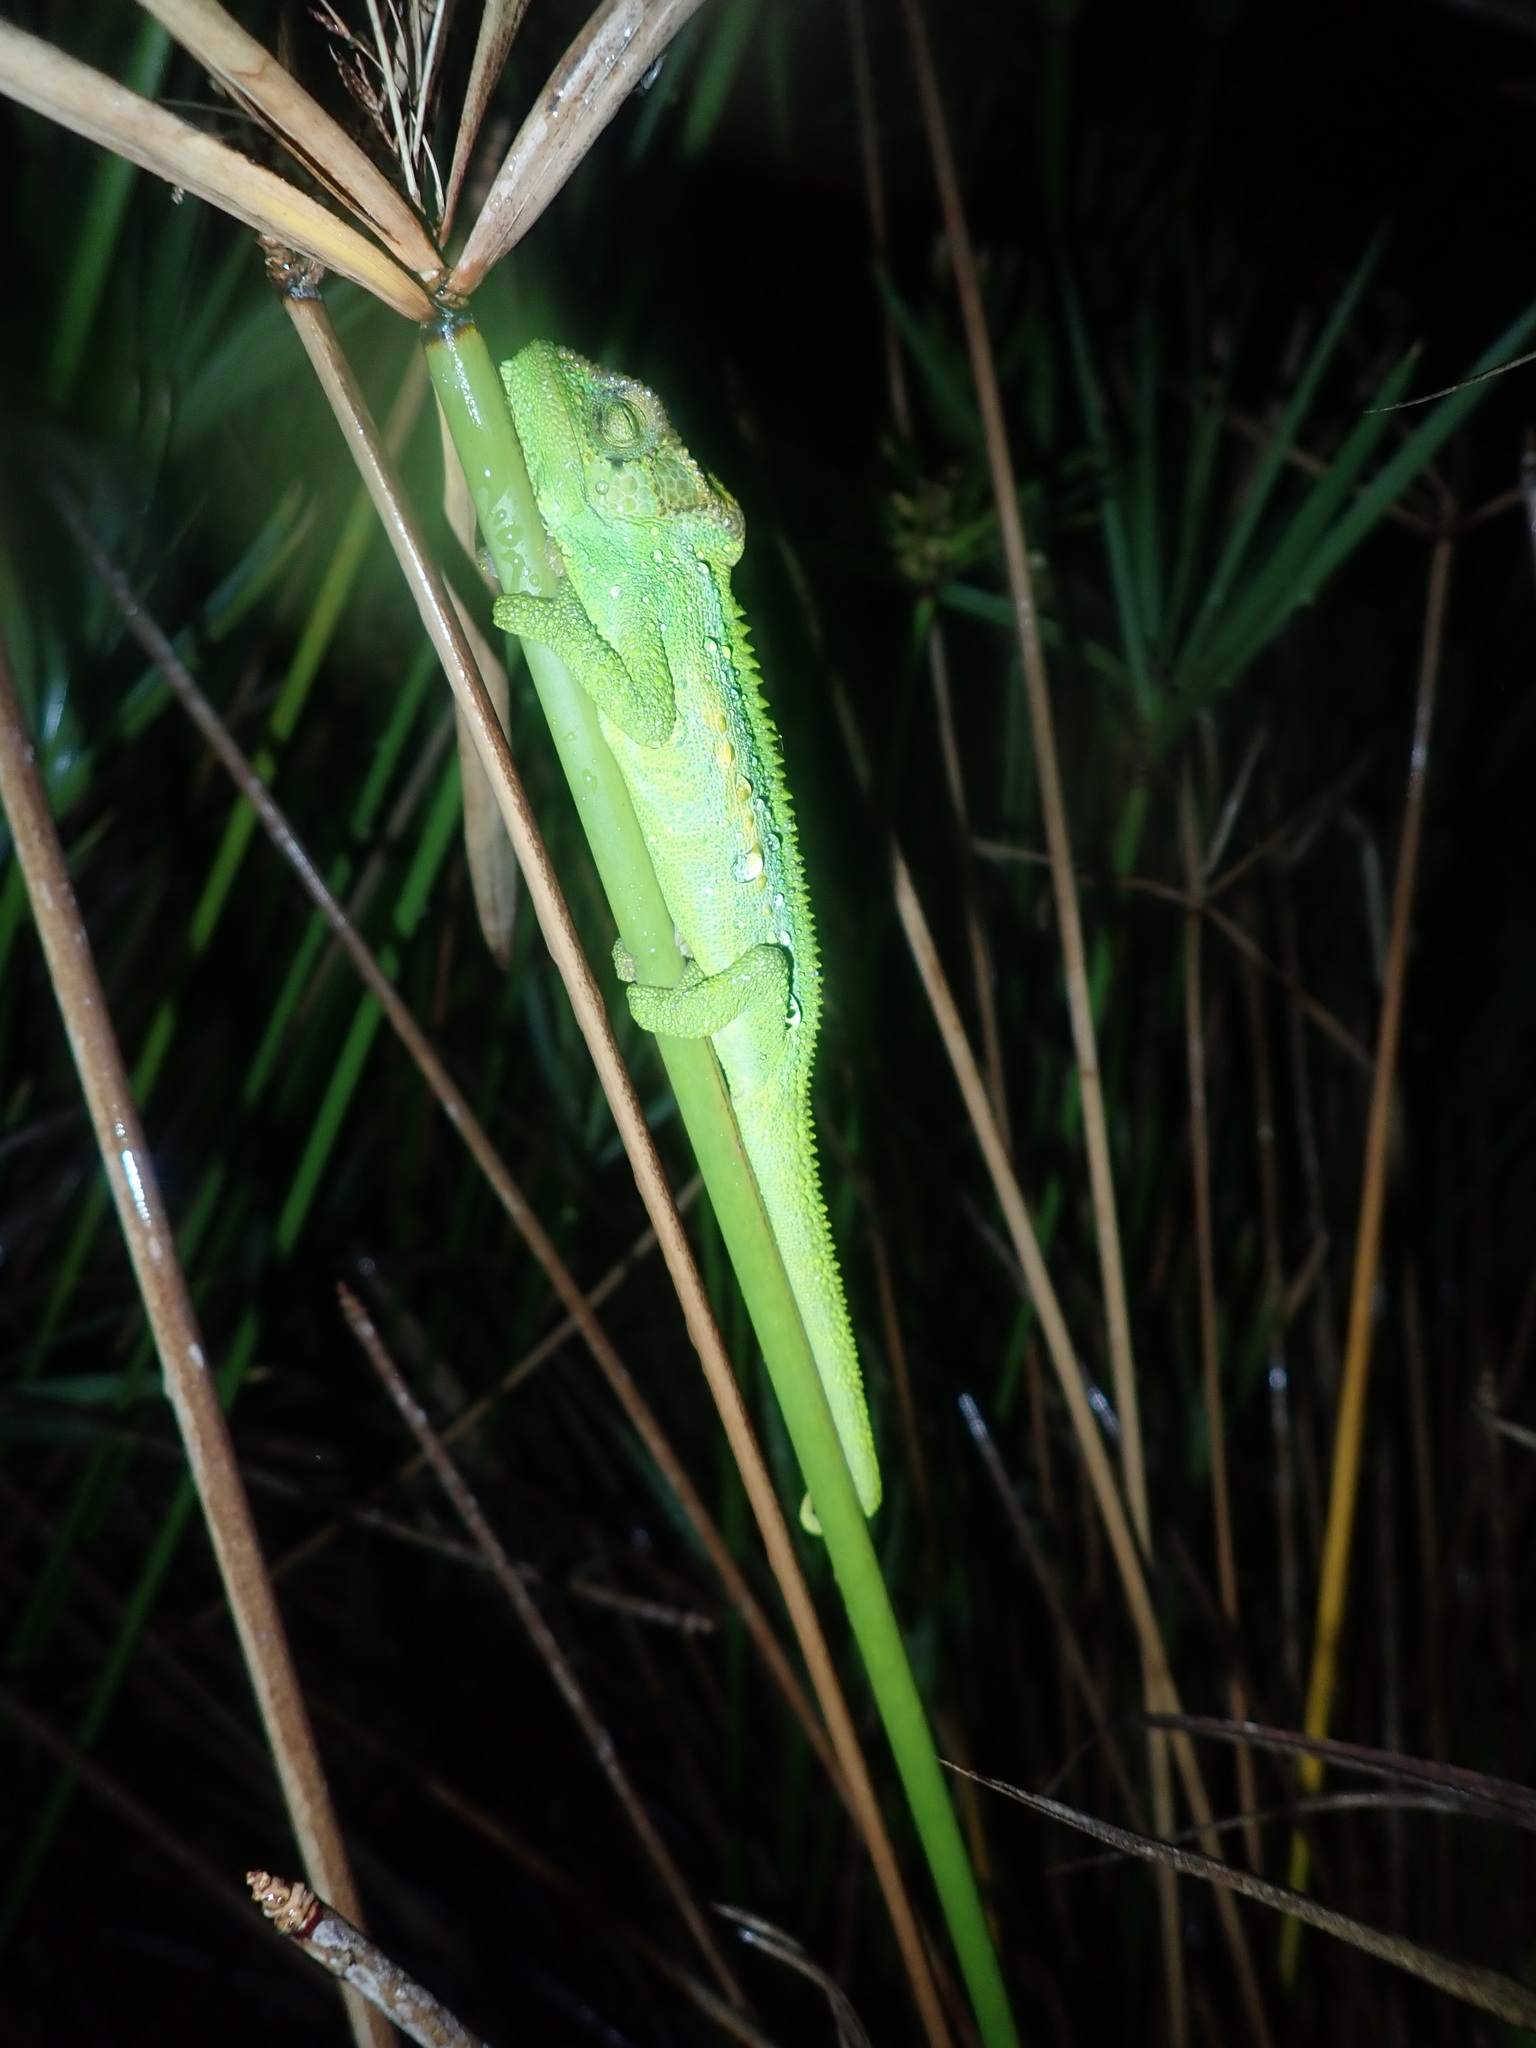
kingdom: Animalia
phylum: Chordata
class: Squamata
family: Chamaeleonidae
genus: Bradypodion
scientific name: Bradypodion pumilum
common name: Cape dwarf chameleon
